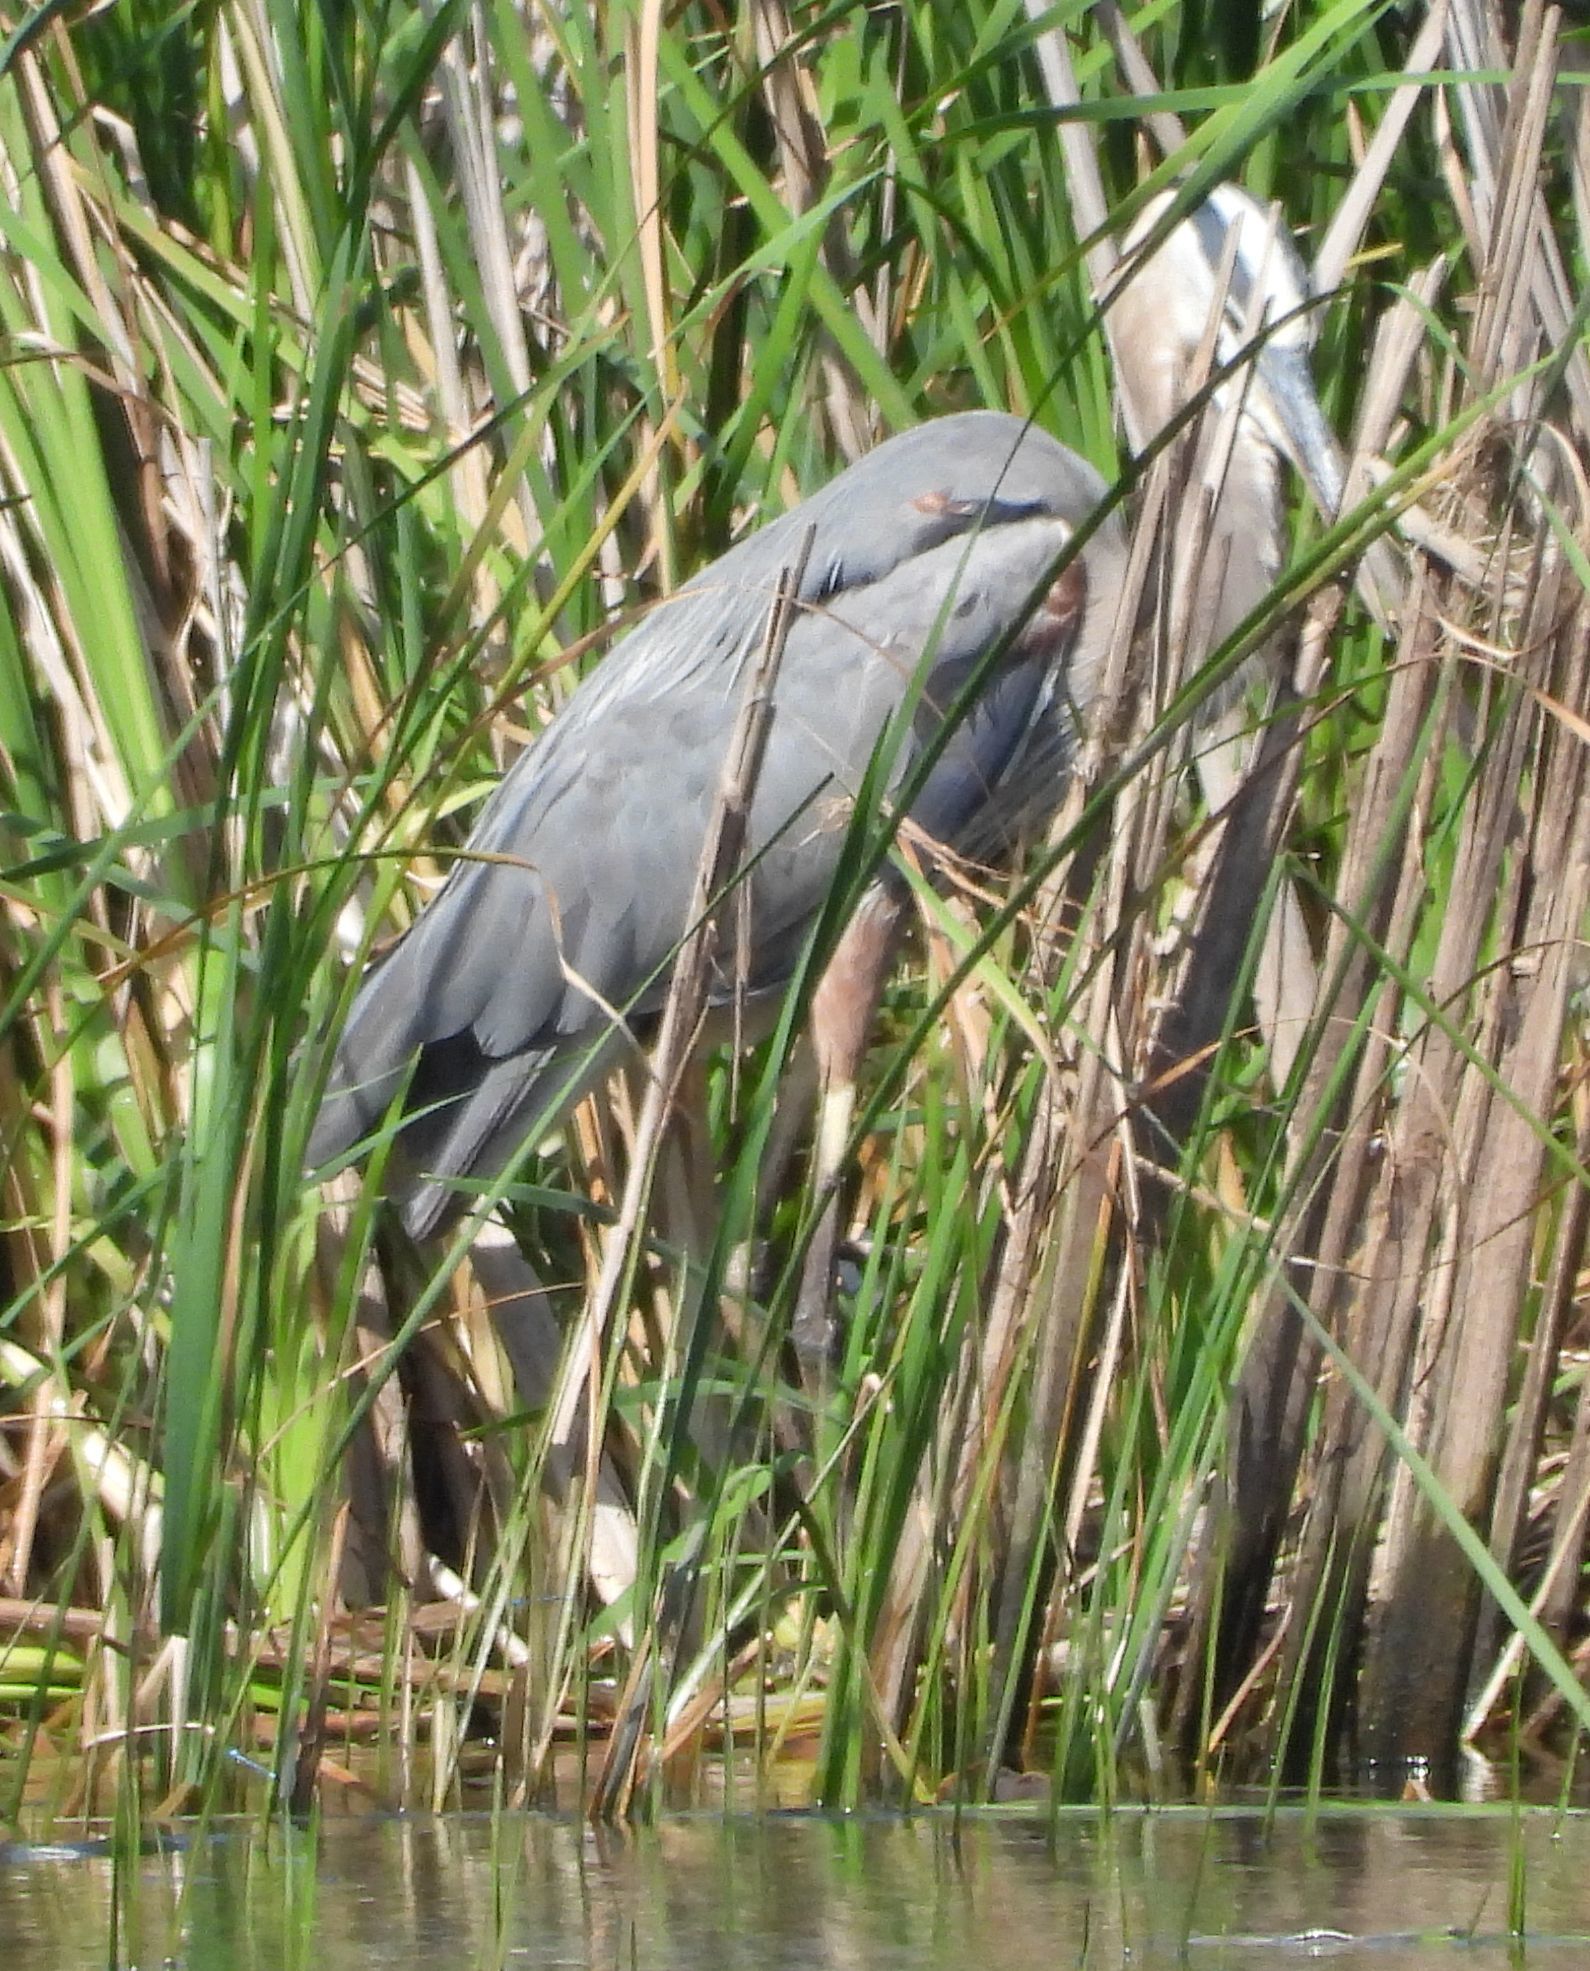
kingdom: Animalia
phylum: Chordata
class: Aves
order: Pelecaniformes
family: Ardeidae
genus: Ardea
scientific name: Ardea herodias
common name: Great blue heron
